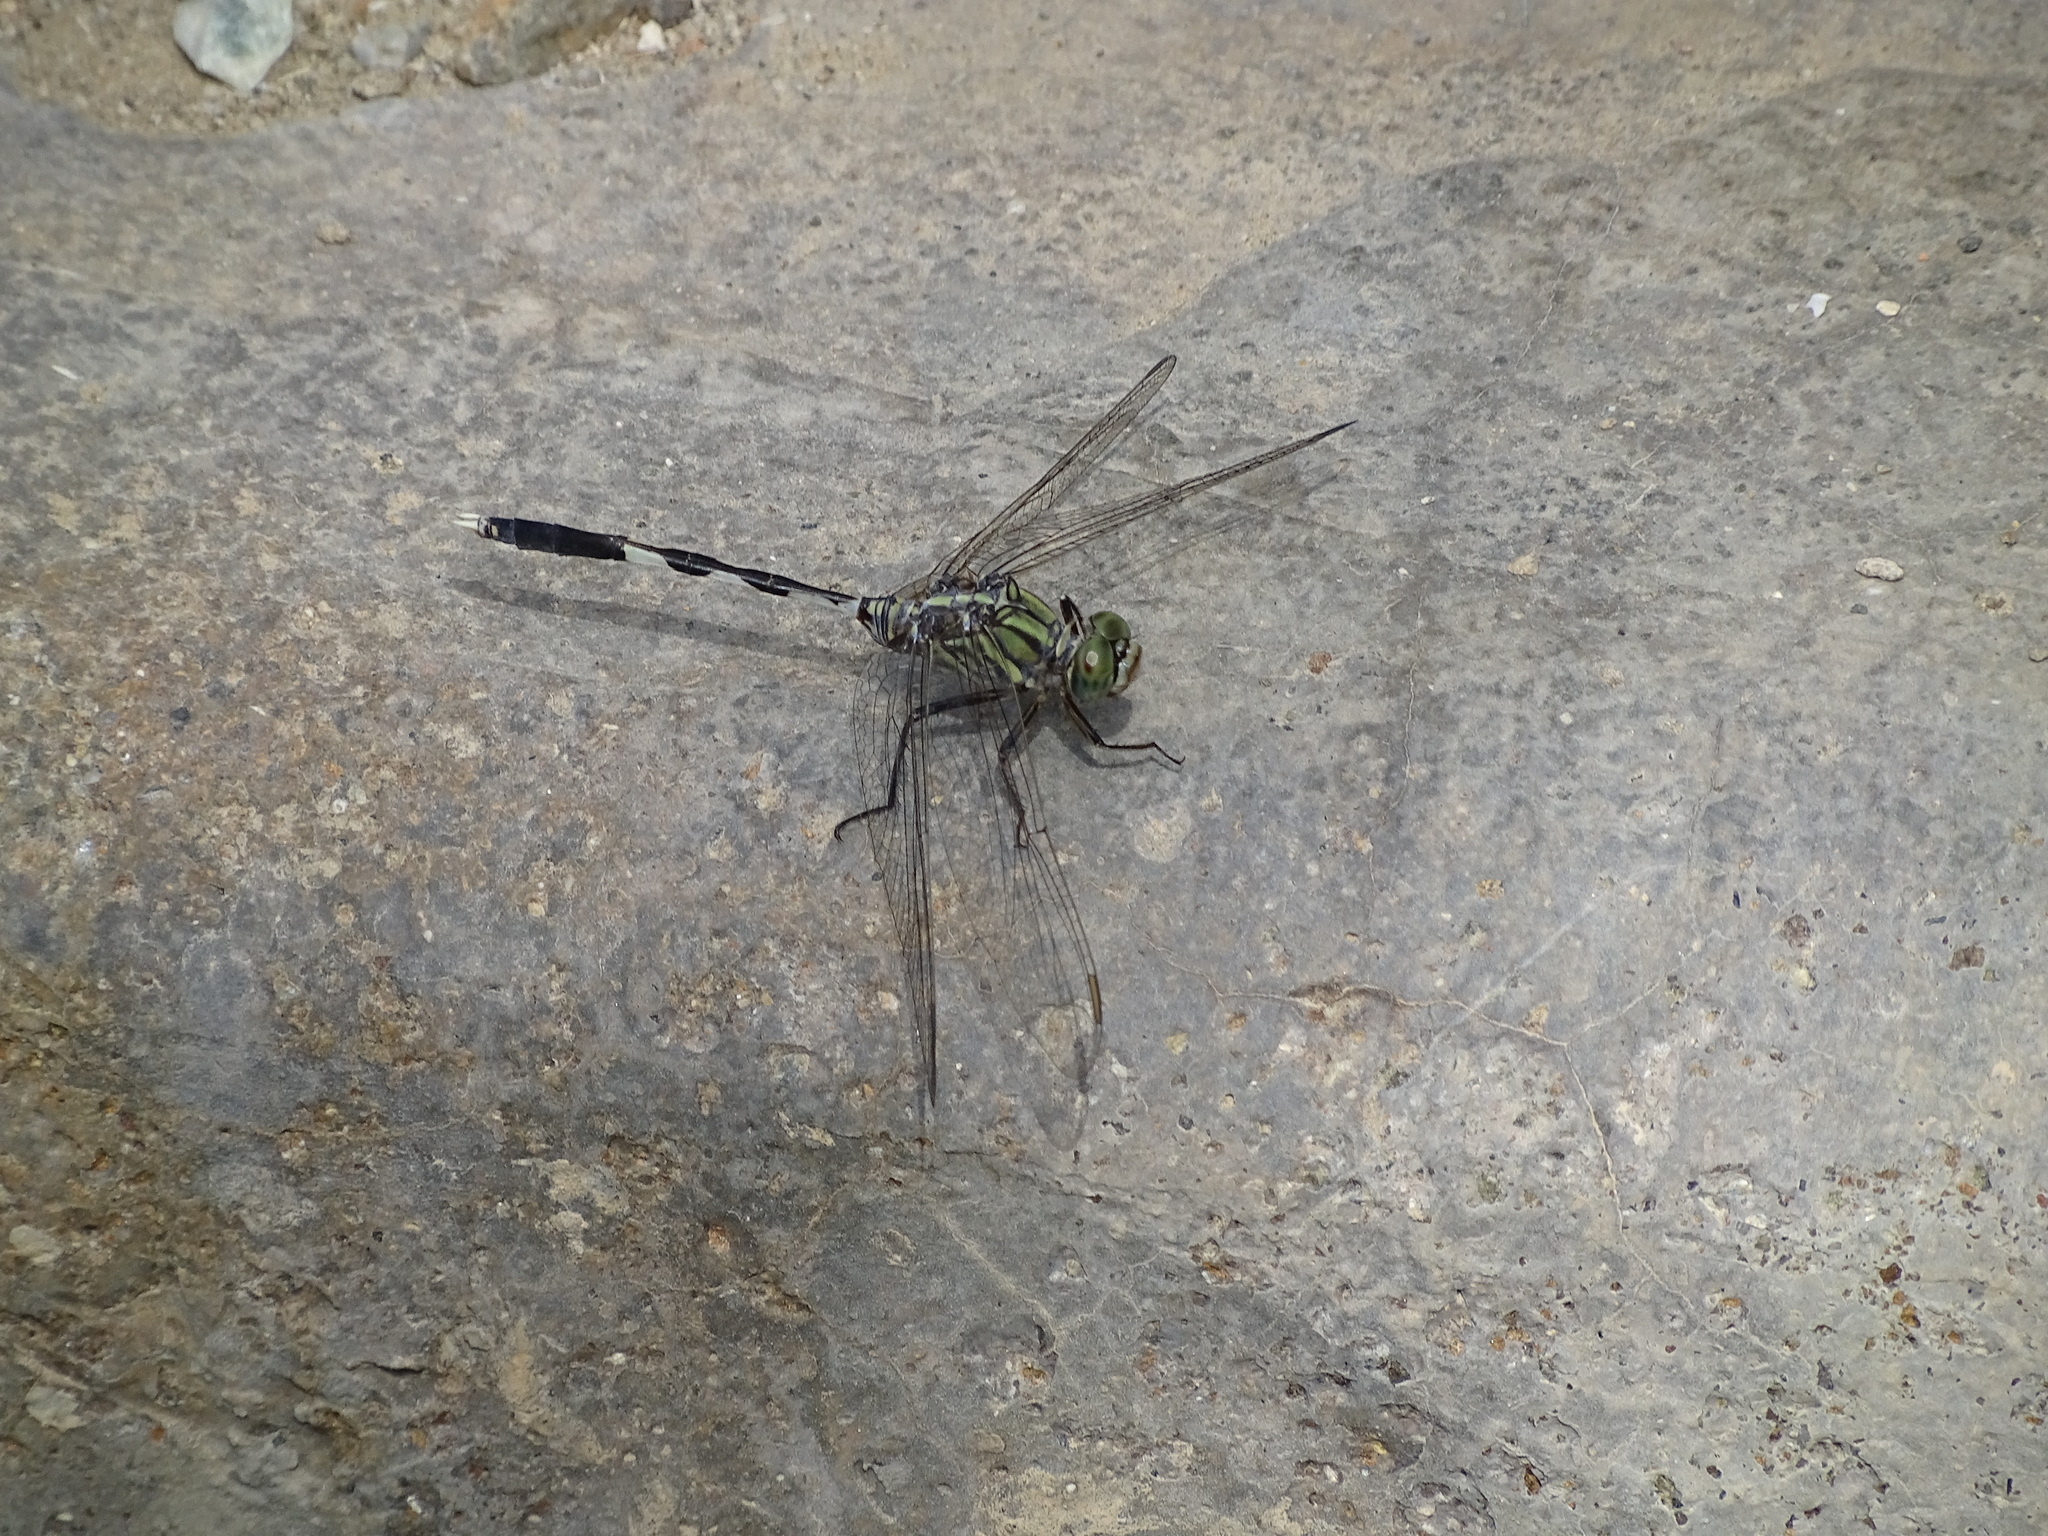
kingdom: Animalia
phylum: Arthropoda
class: Insecta
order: Odonata
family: Libellulidae
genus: Orthetrum
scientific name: Orthetrum sabina
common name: Slender skimmer
